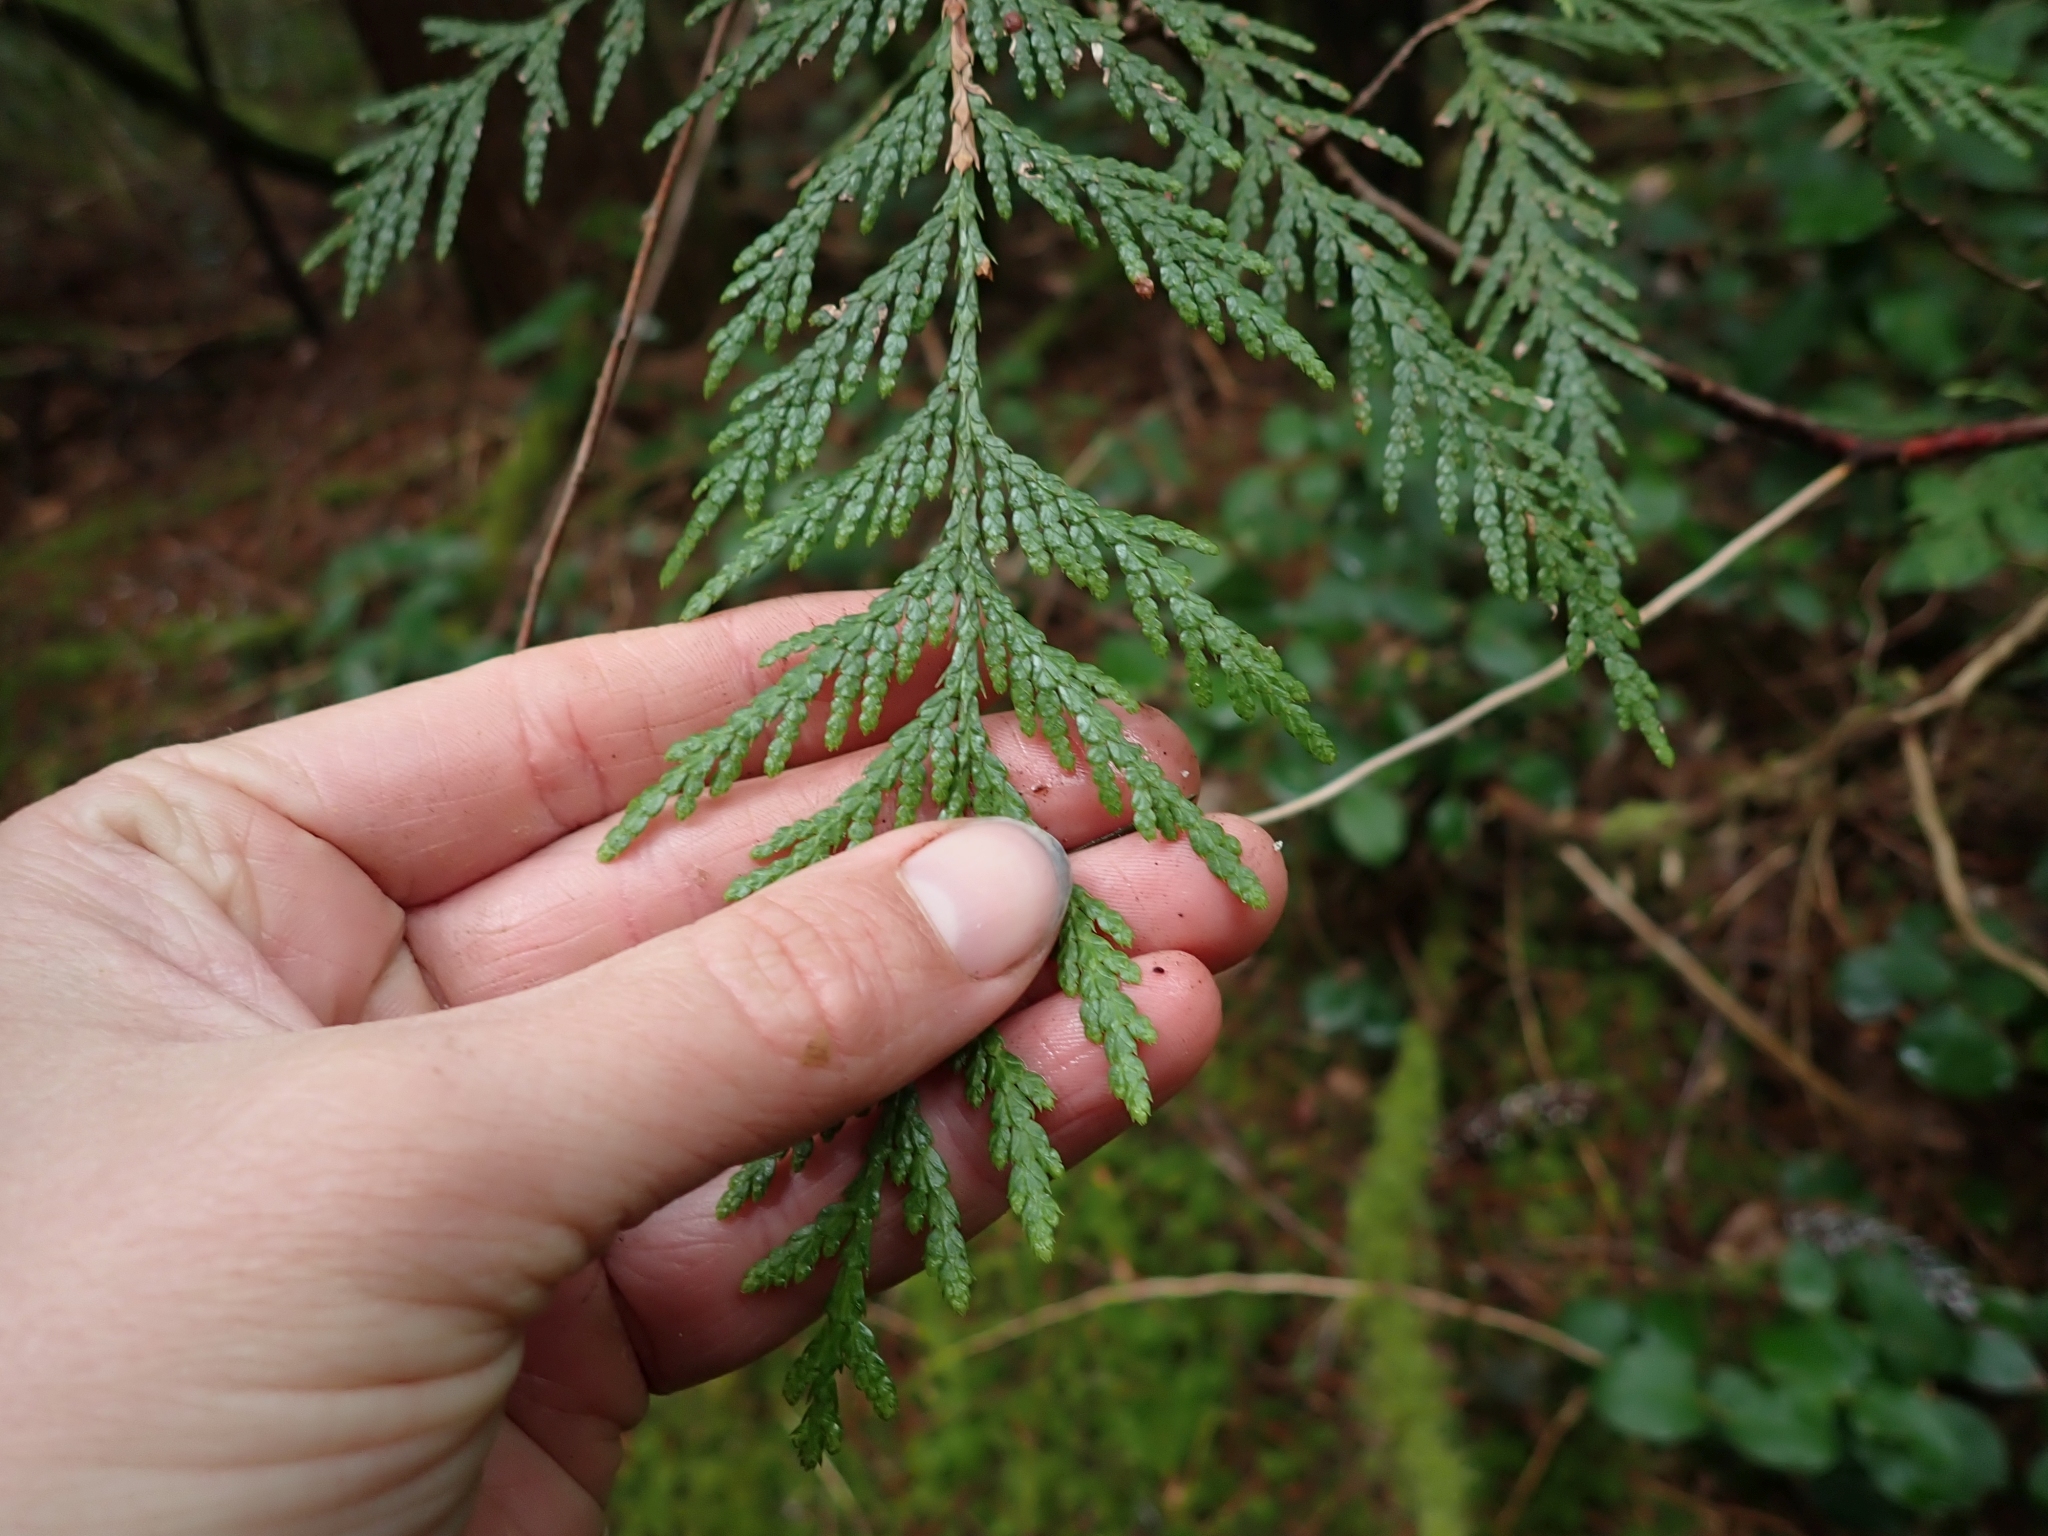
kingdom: Plantae
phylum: Tracheophyta
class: Pinopsida
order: Pinales
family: Cupressaceae
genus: Thuja
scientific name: Thuja plicata
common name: Western red-cedar
